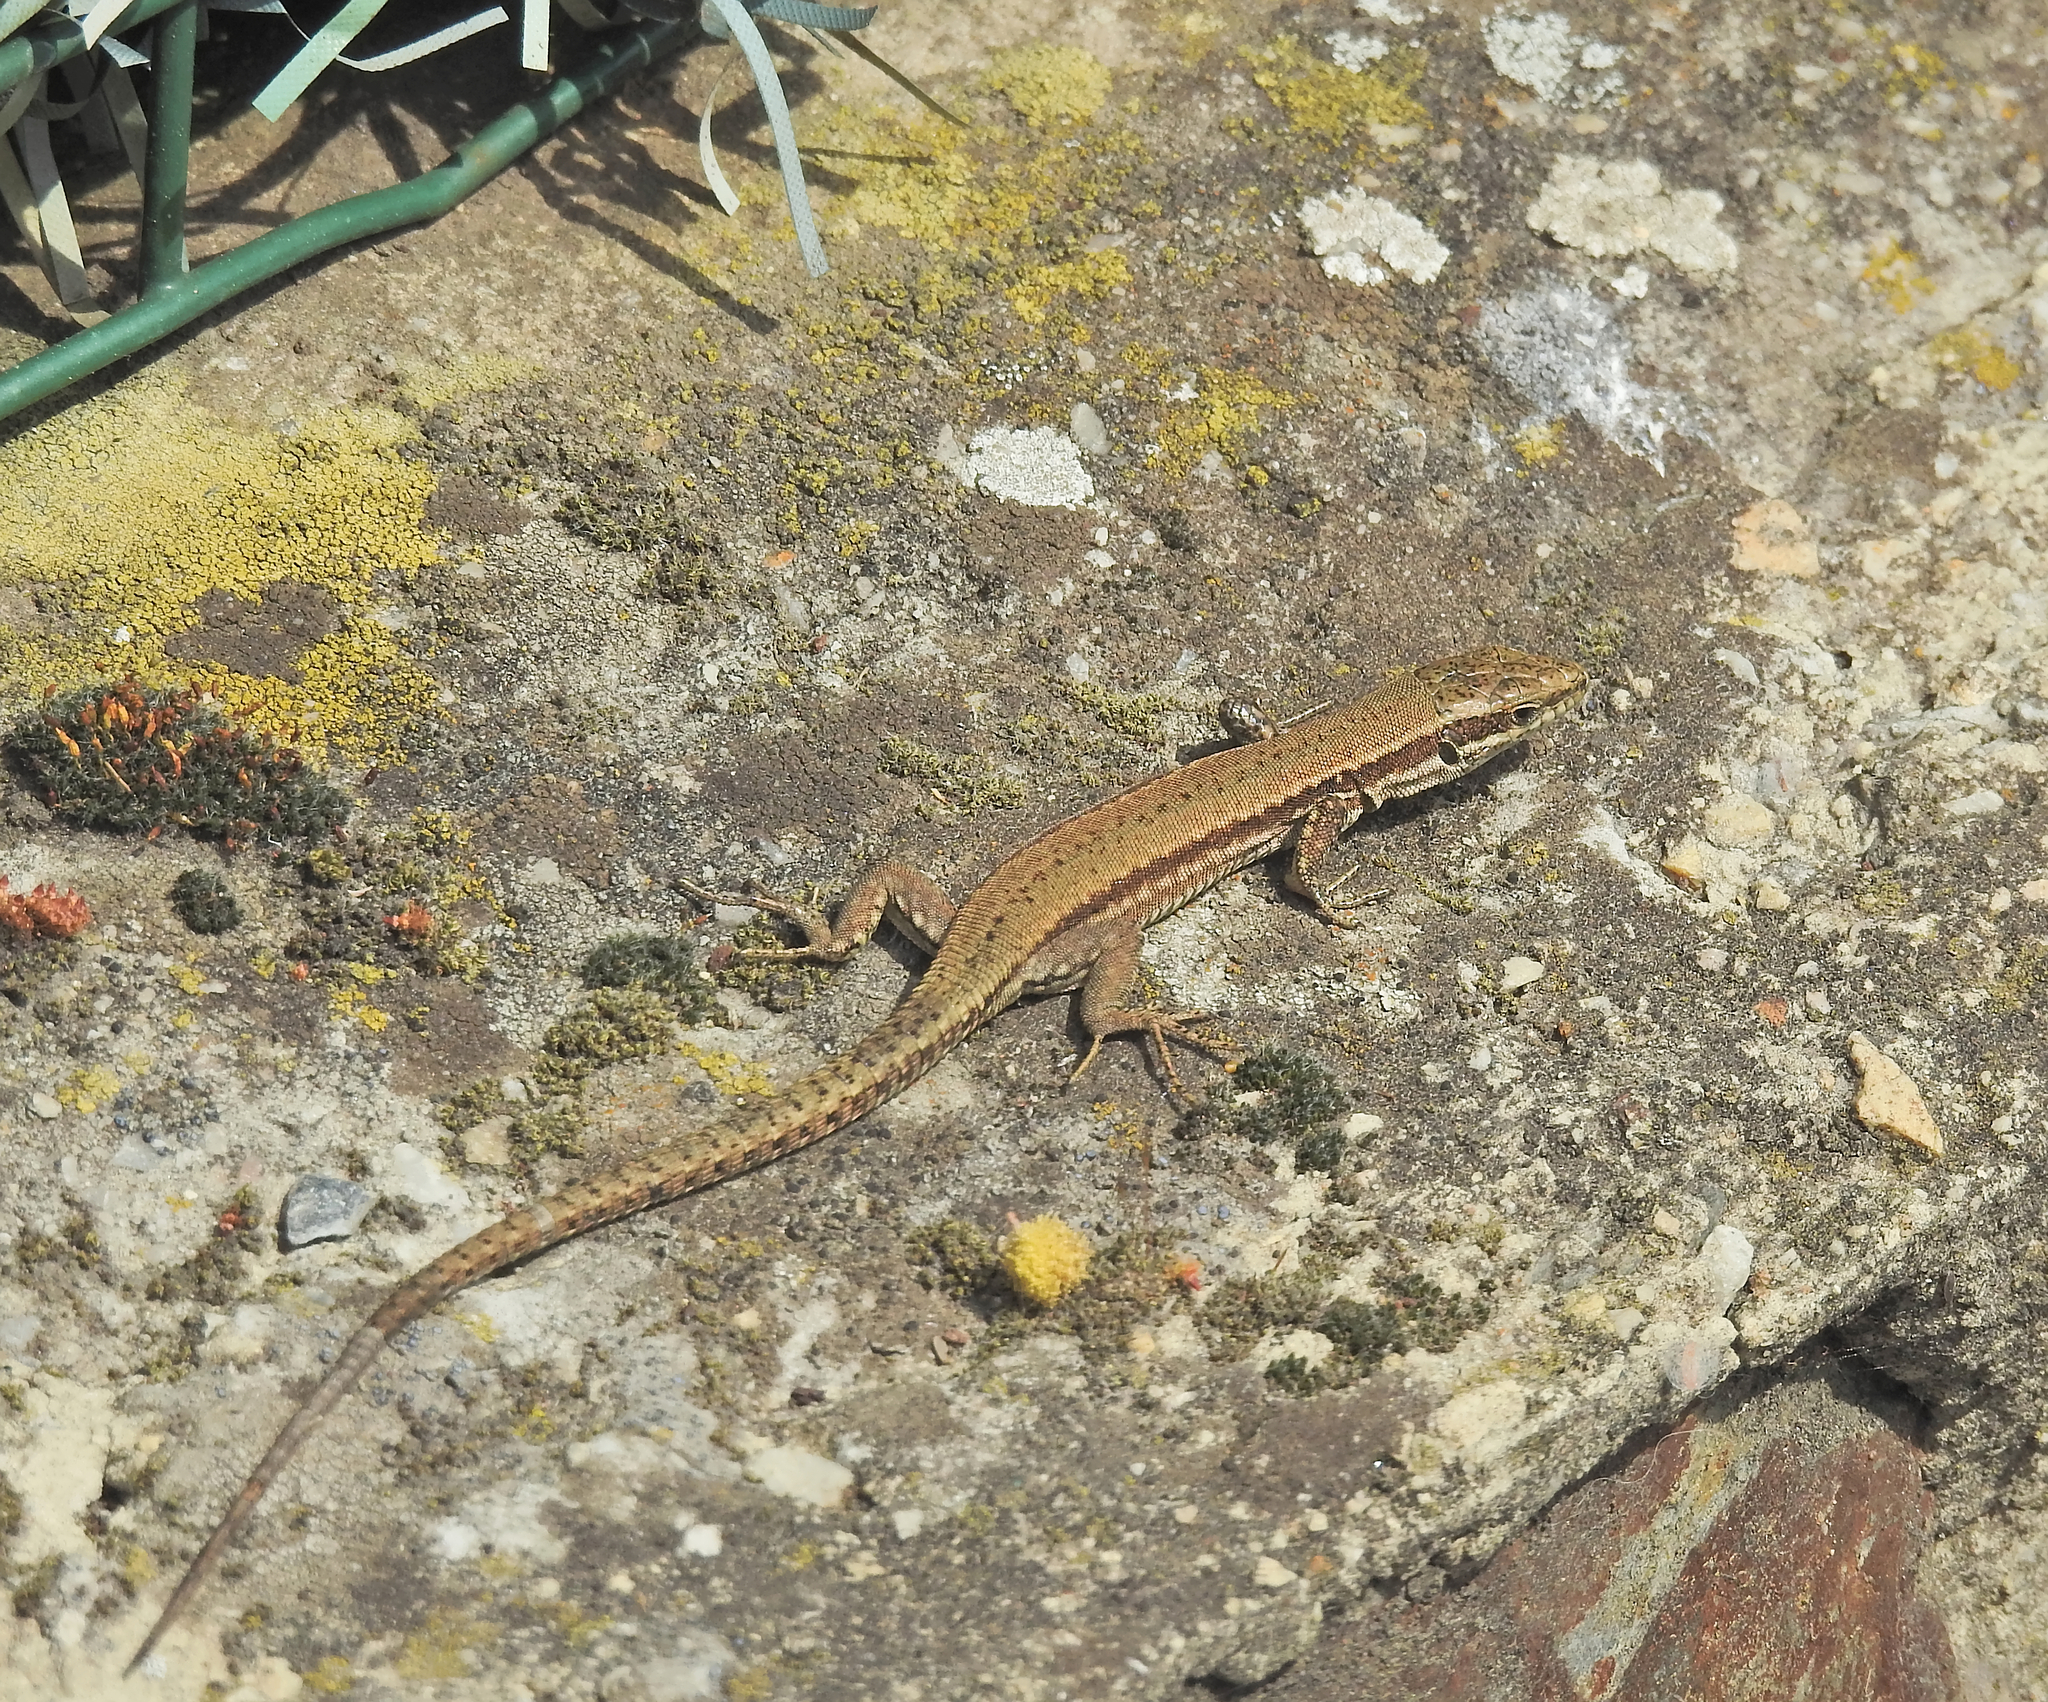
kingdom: Animalia
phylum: Chordata
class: Squamata
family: Lacertidae
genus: Podarcis
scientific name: Podarcis muralis
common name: Common wall lizard
